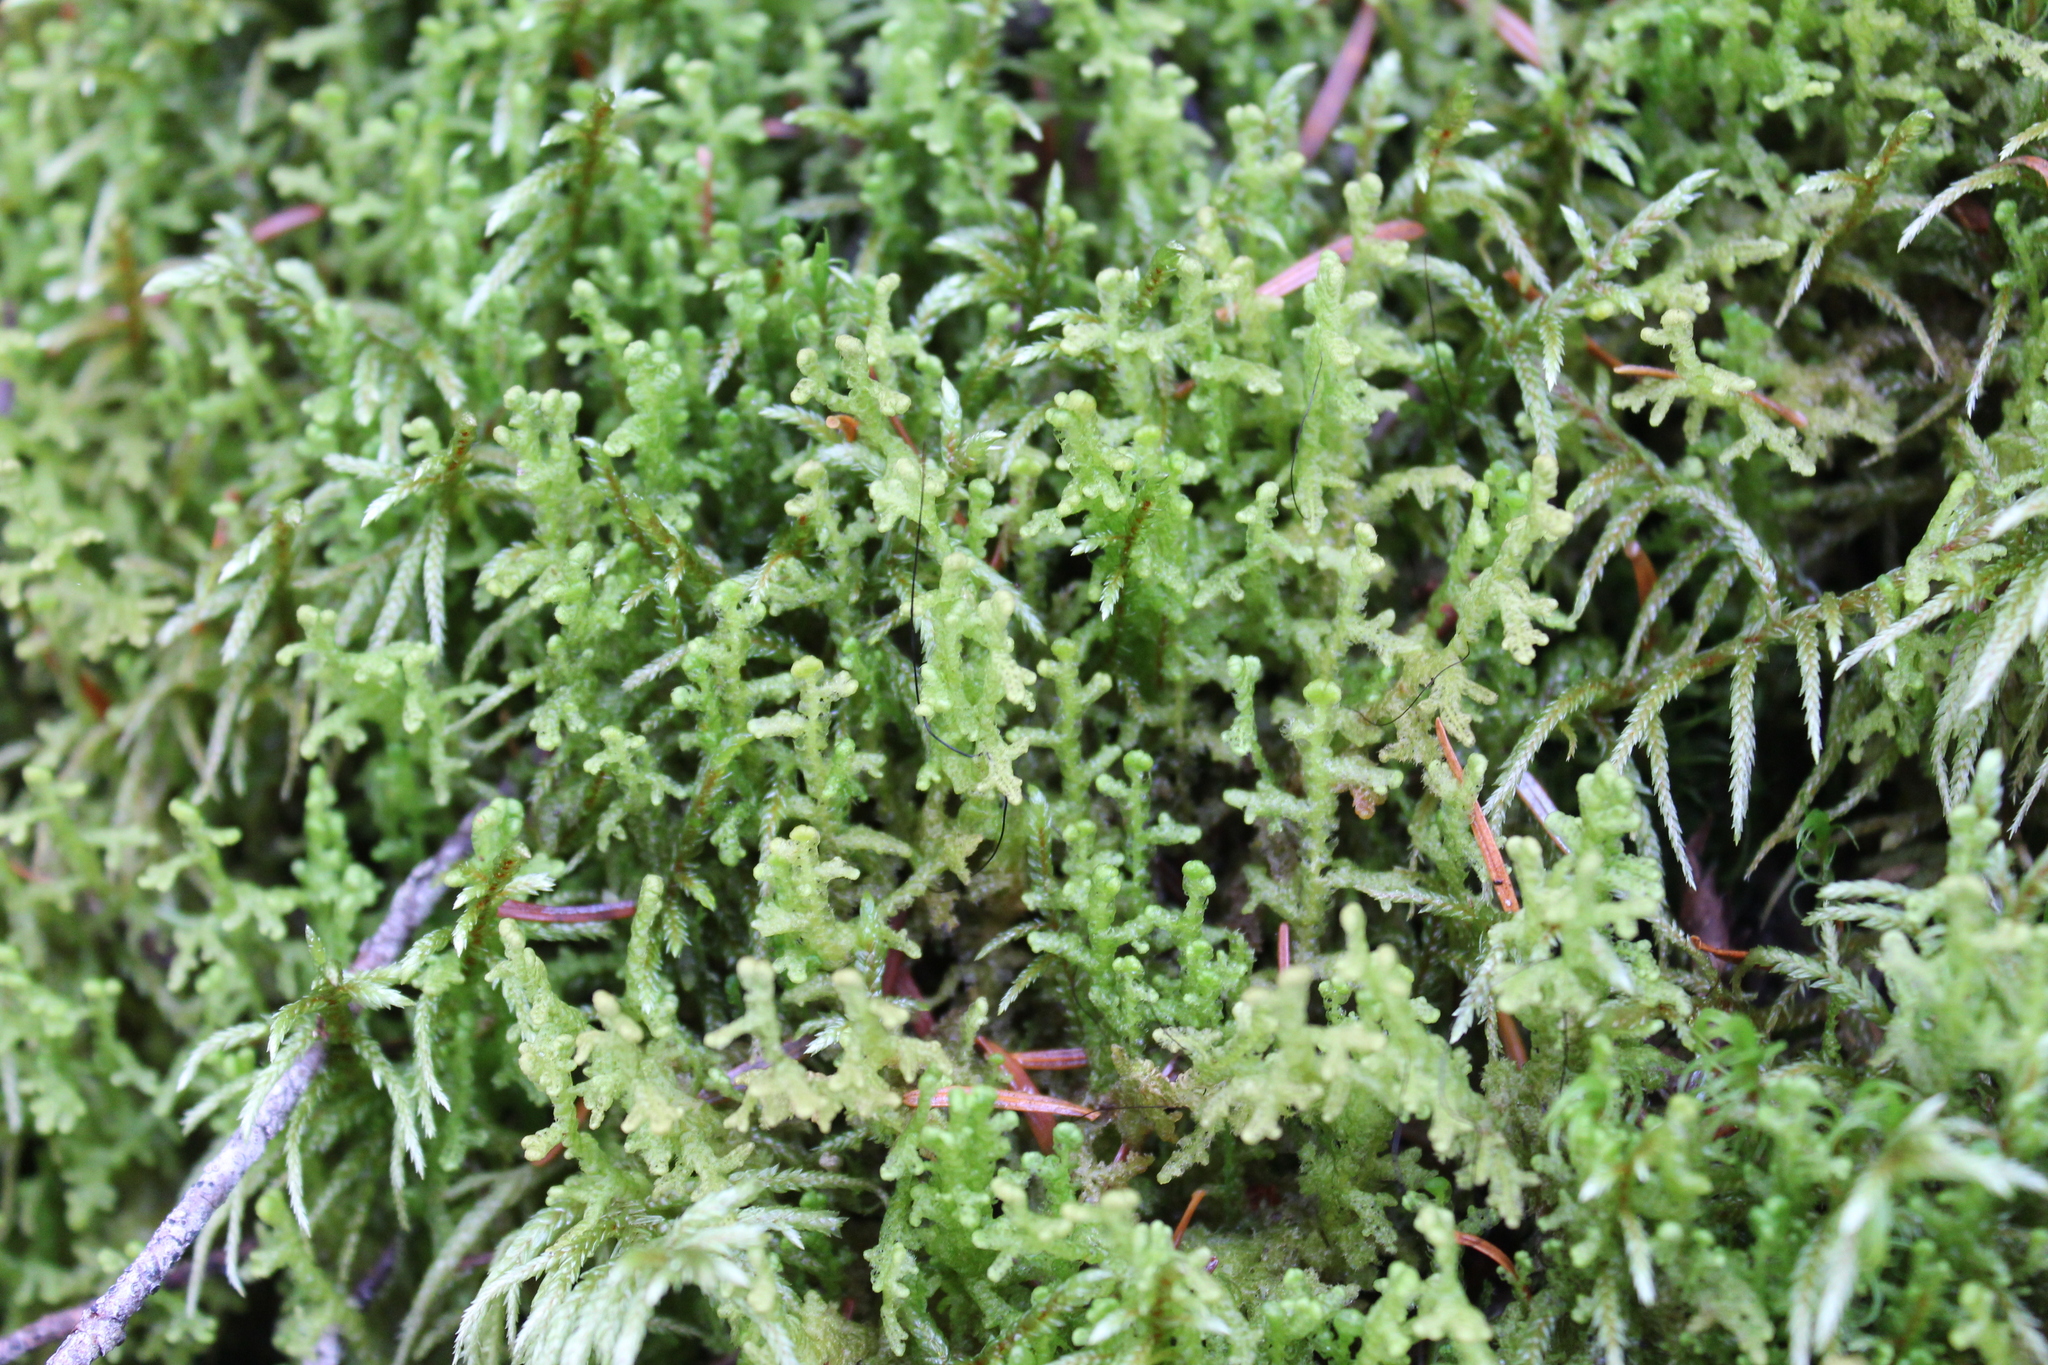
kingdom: Plantae
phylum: Marchantiophyta
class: Jungermanniopsida
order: Ptilidiales
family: Ptilidiaceae
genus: Ptilidium
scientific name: Ptilidium ciliare
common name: Ciliate fringewort
